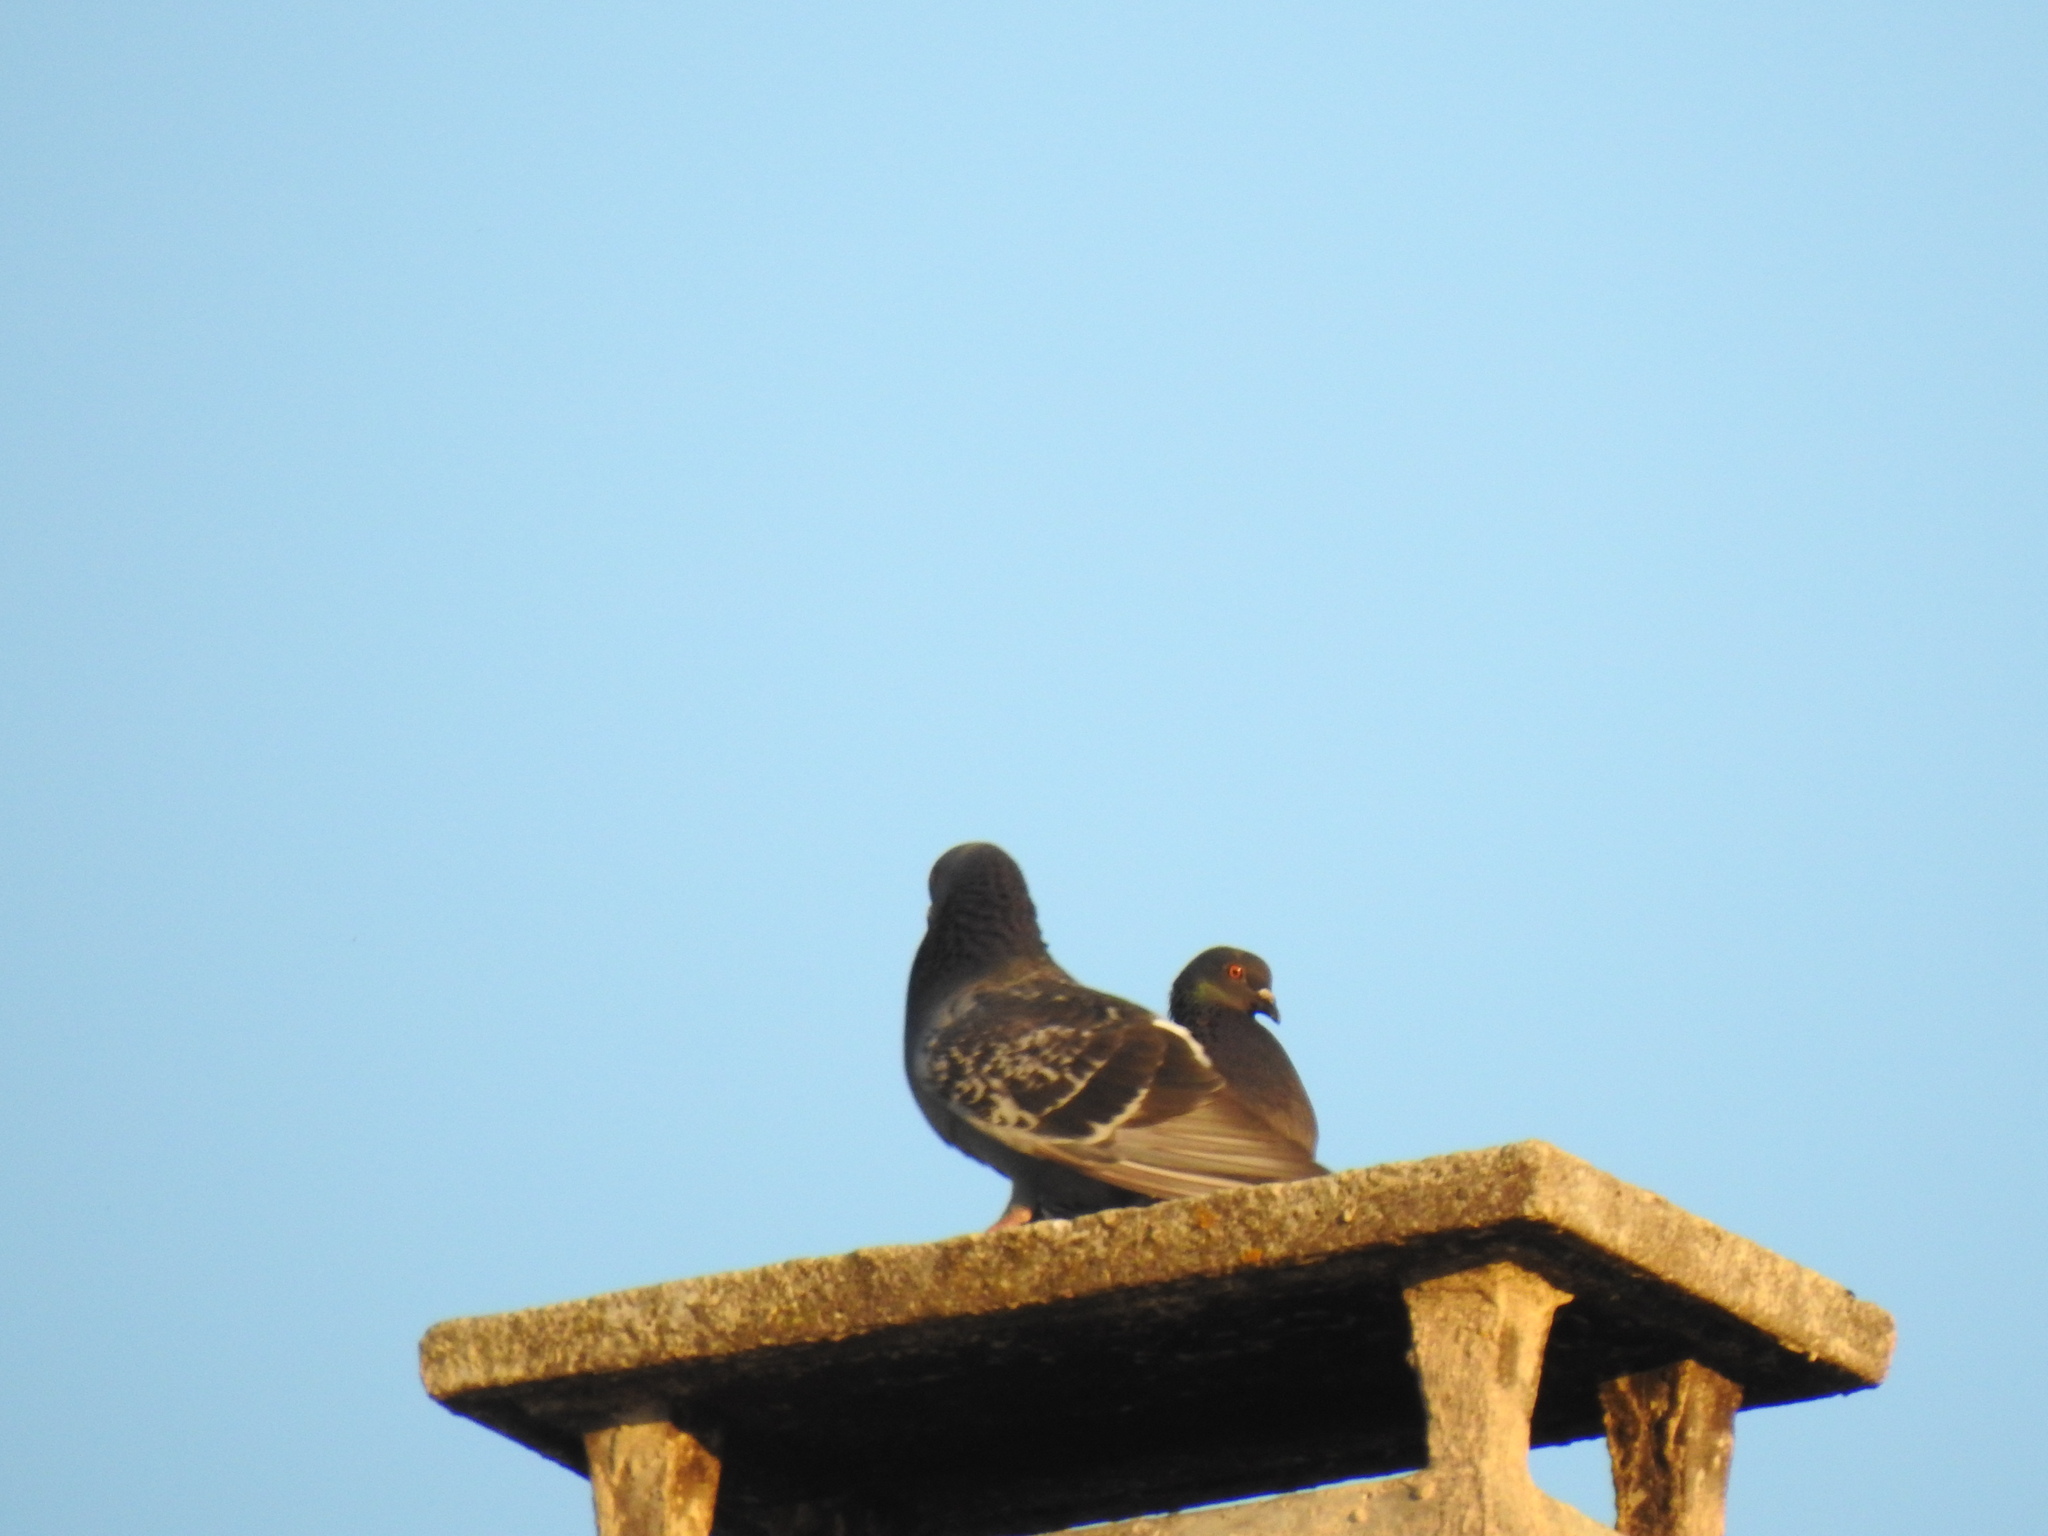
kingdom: Animalia
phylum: Chordata
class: Aves
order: Columbiformes
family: Columbidae
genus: Columba
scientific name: Columba livia
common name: Rock pigeon
